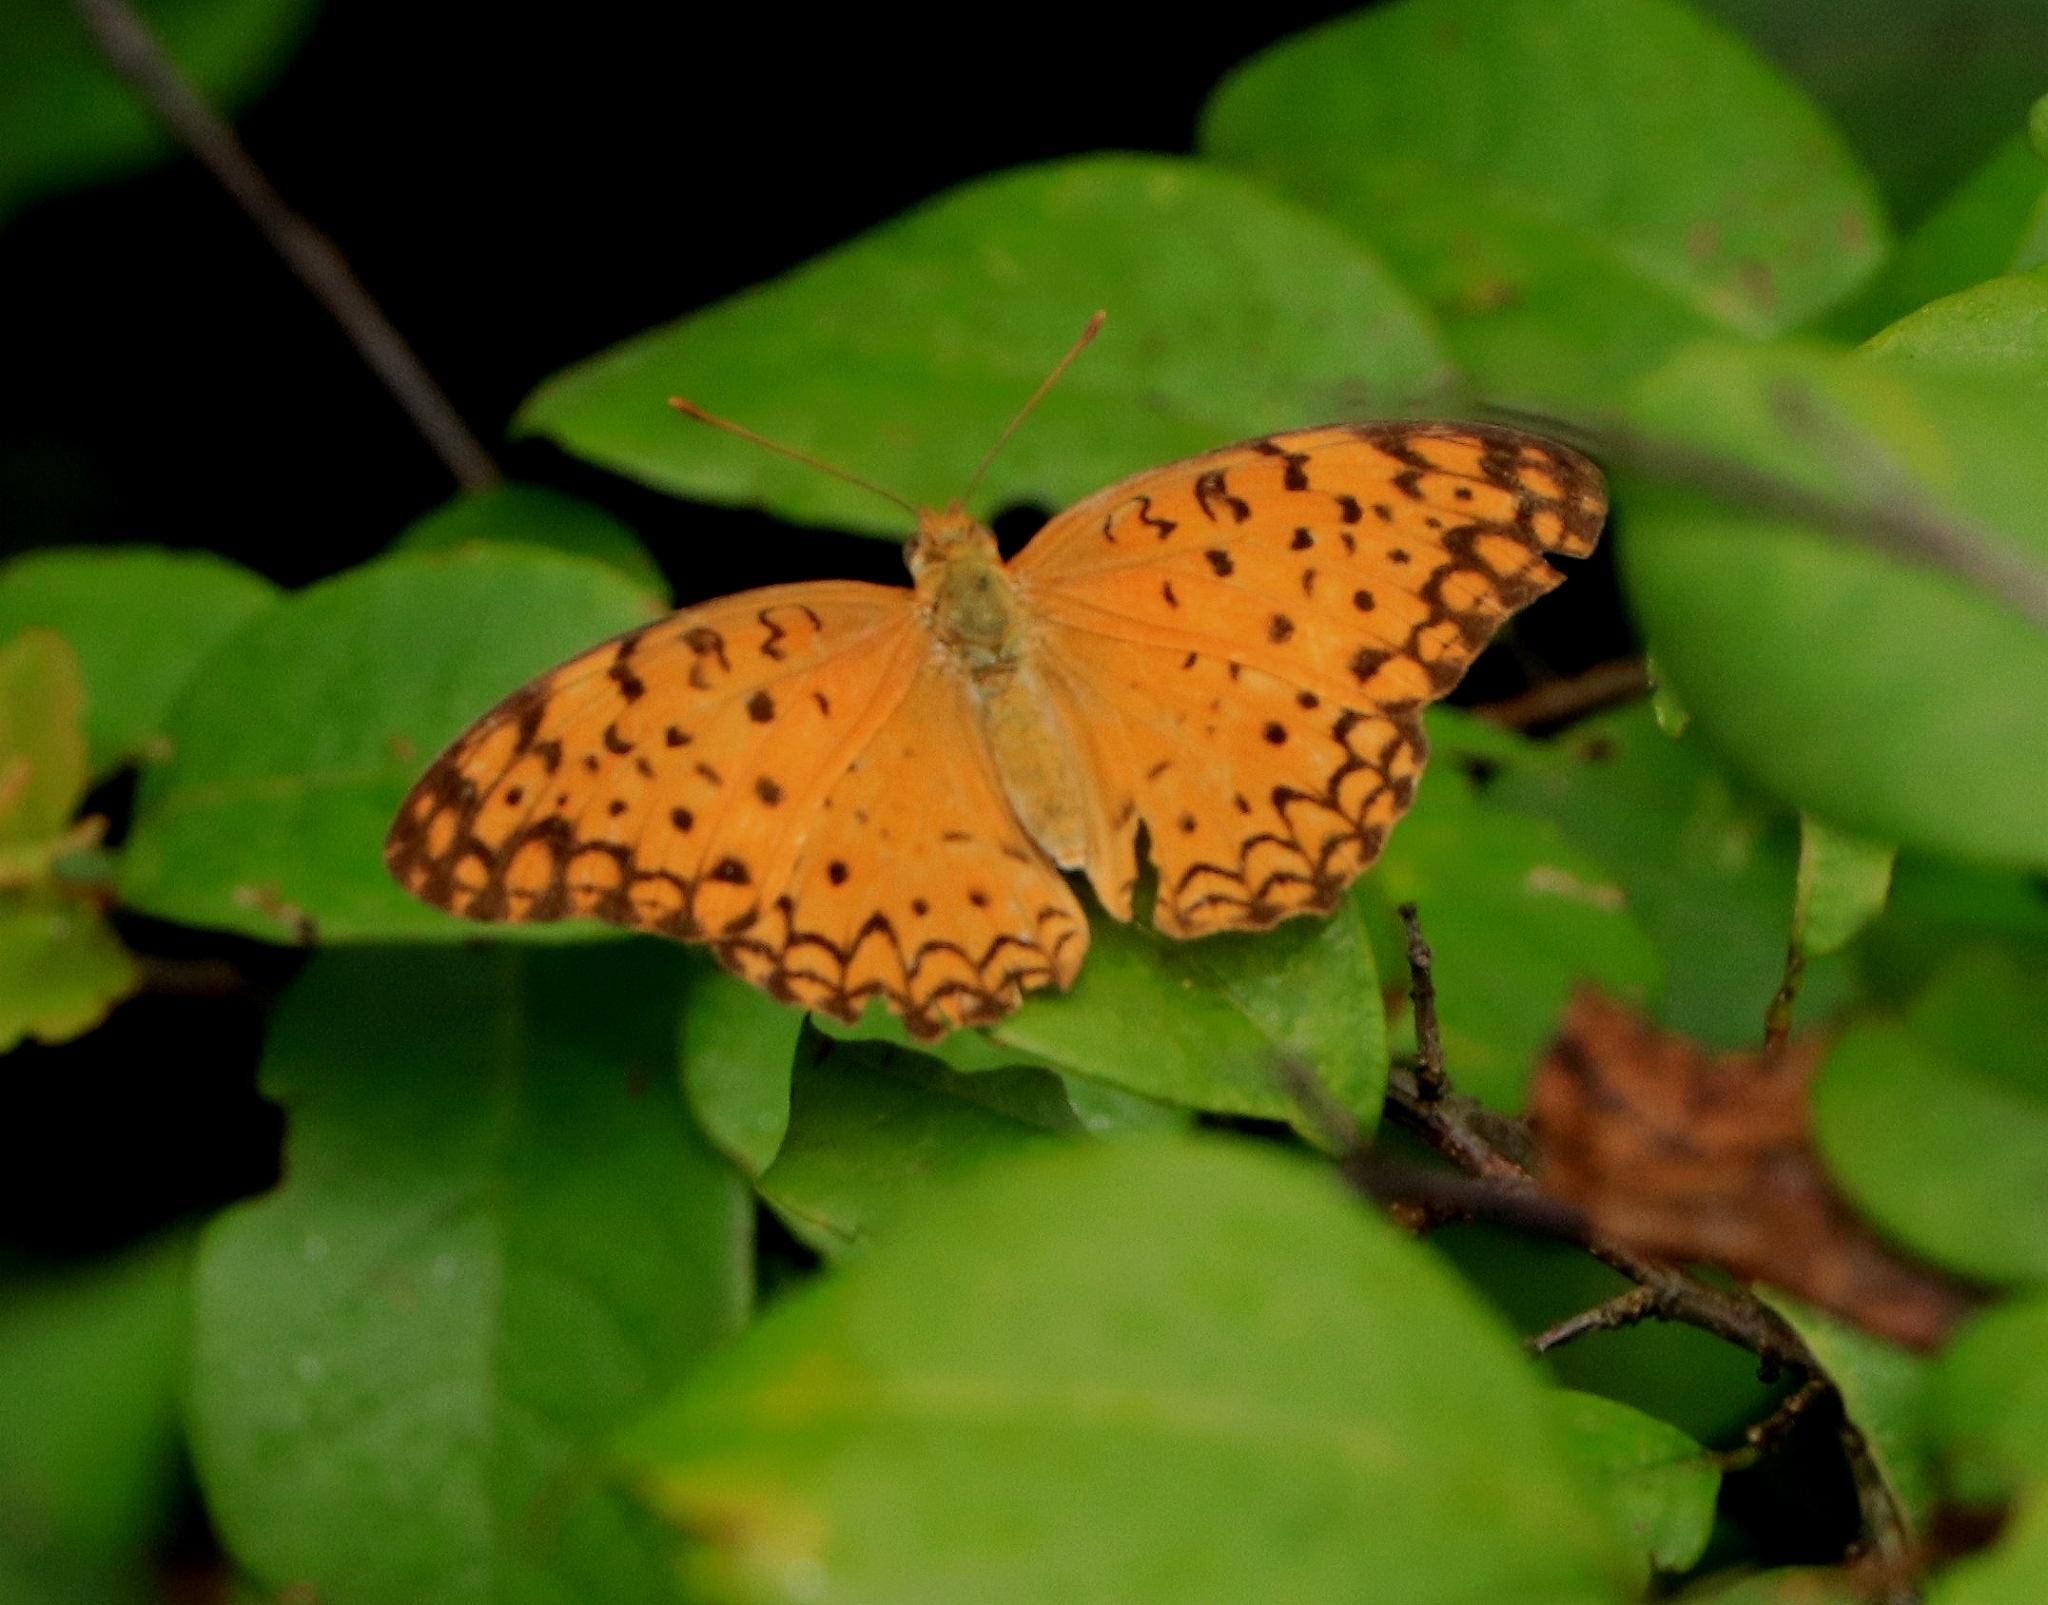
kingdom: Animalia
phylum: Arthropoda
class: Insecta
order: Lepidoptera
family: Nymphalidae
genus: Phalanta
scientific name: Phalanta phalantha
